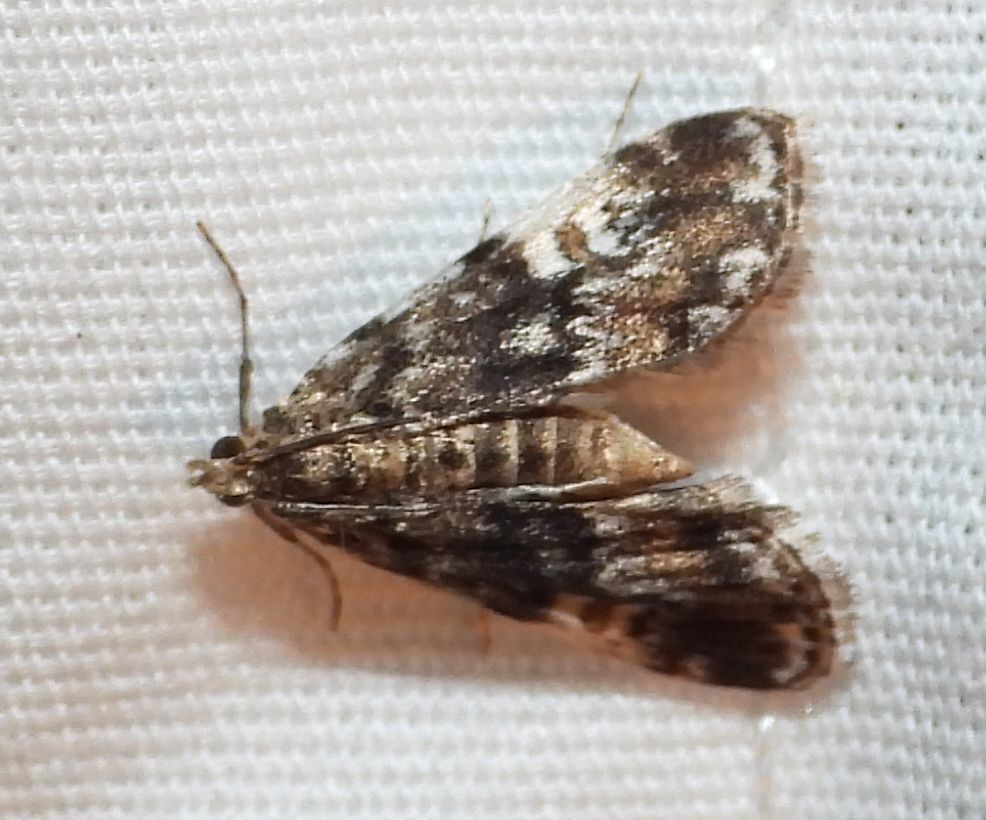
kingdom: Animalia
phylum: Arthropoda
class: Insecta
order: Lepidoptera
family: Crambidae
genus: Elophila
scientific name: Elophila obliteralis
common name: Waterlily leafcutter moth
